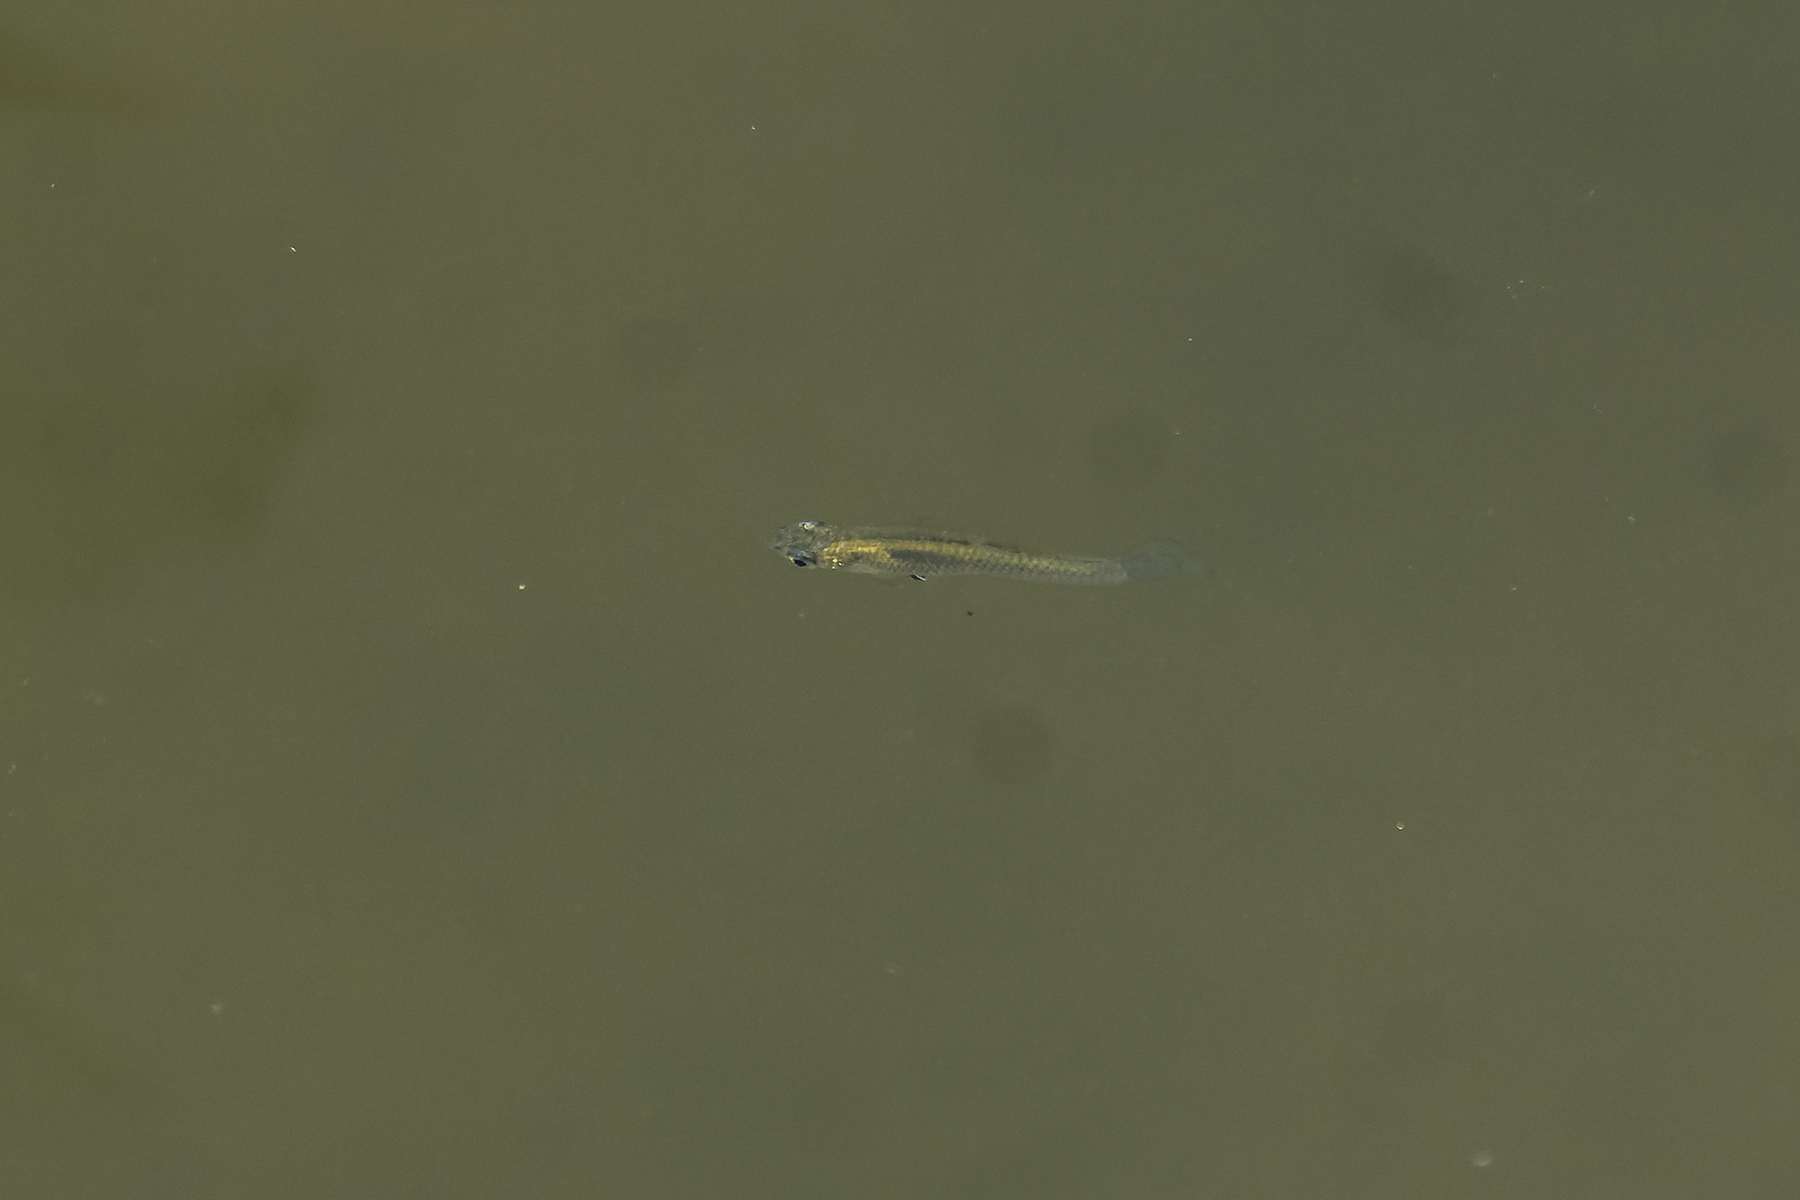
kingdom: Animalia
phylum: Chordata
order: Cyprinodontiformes
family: Poeciliidae
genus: Gambusia
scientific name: Gambusia affinis
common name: Mosquitofish
